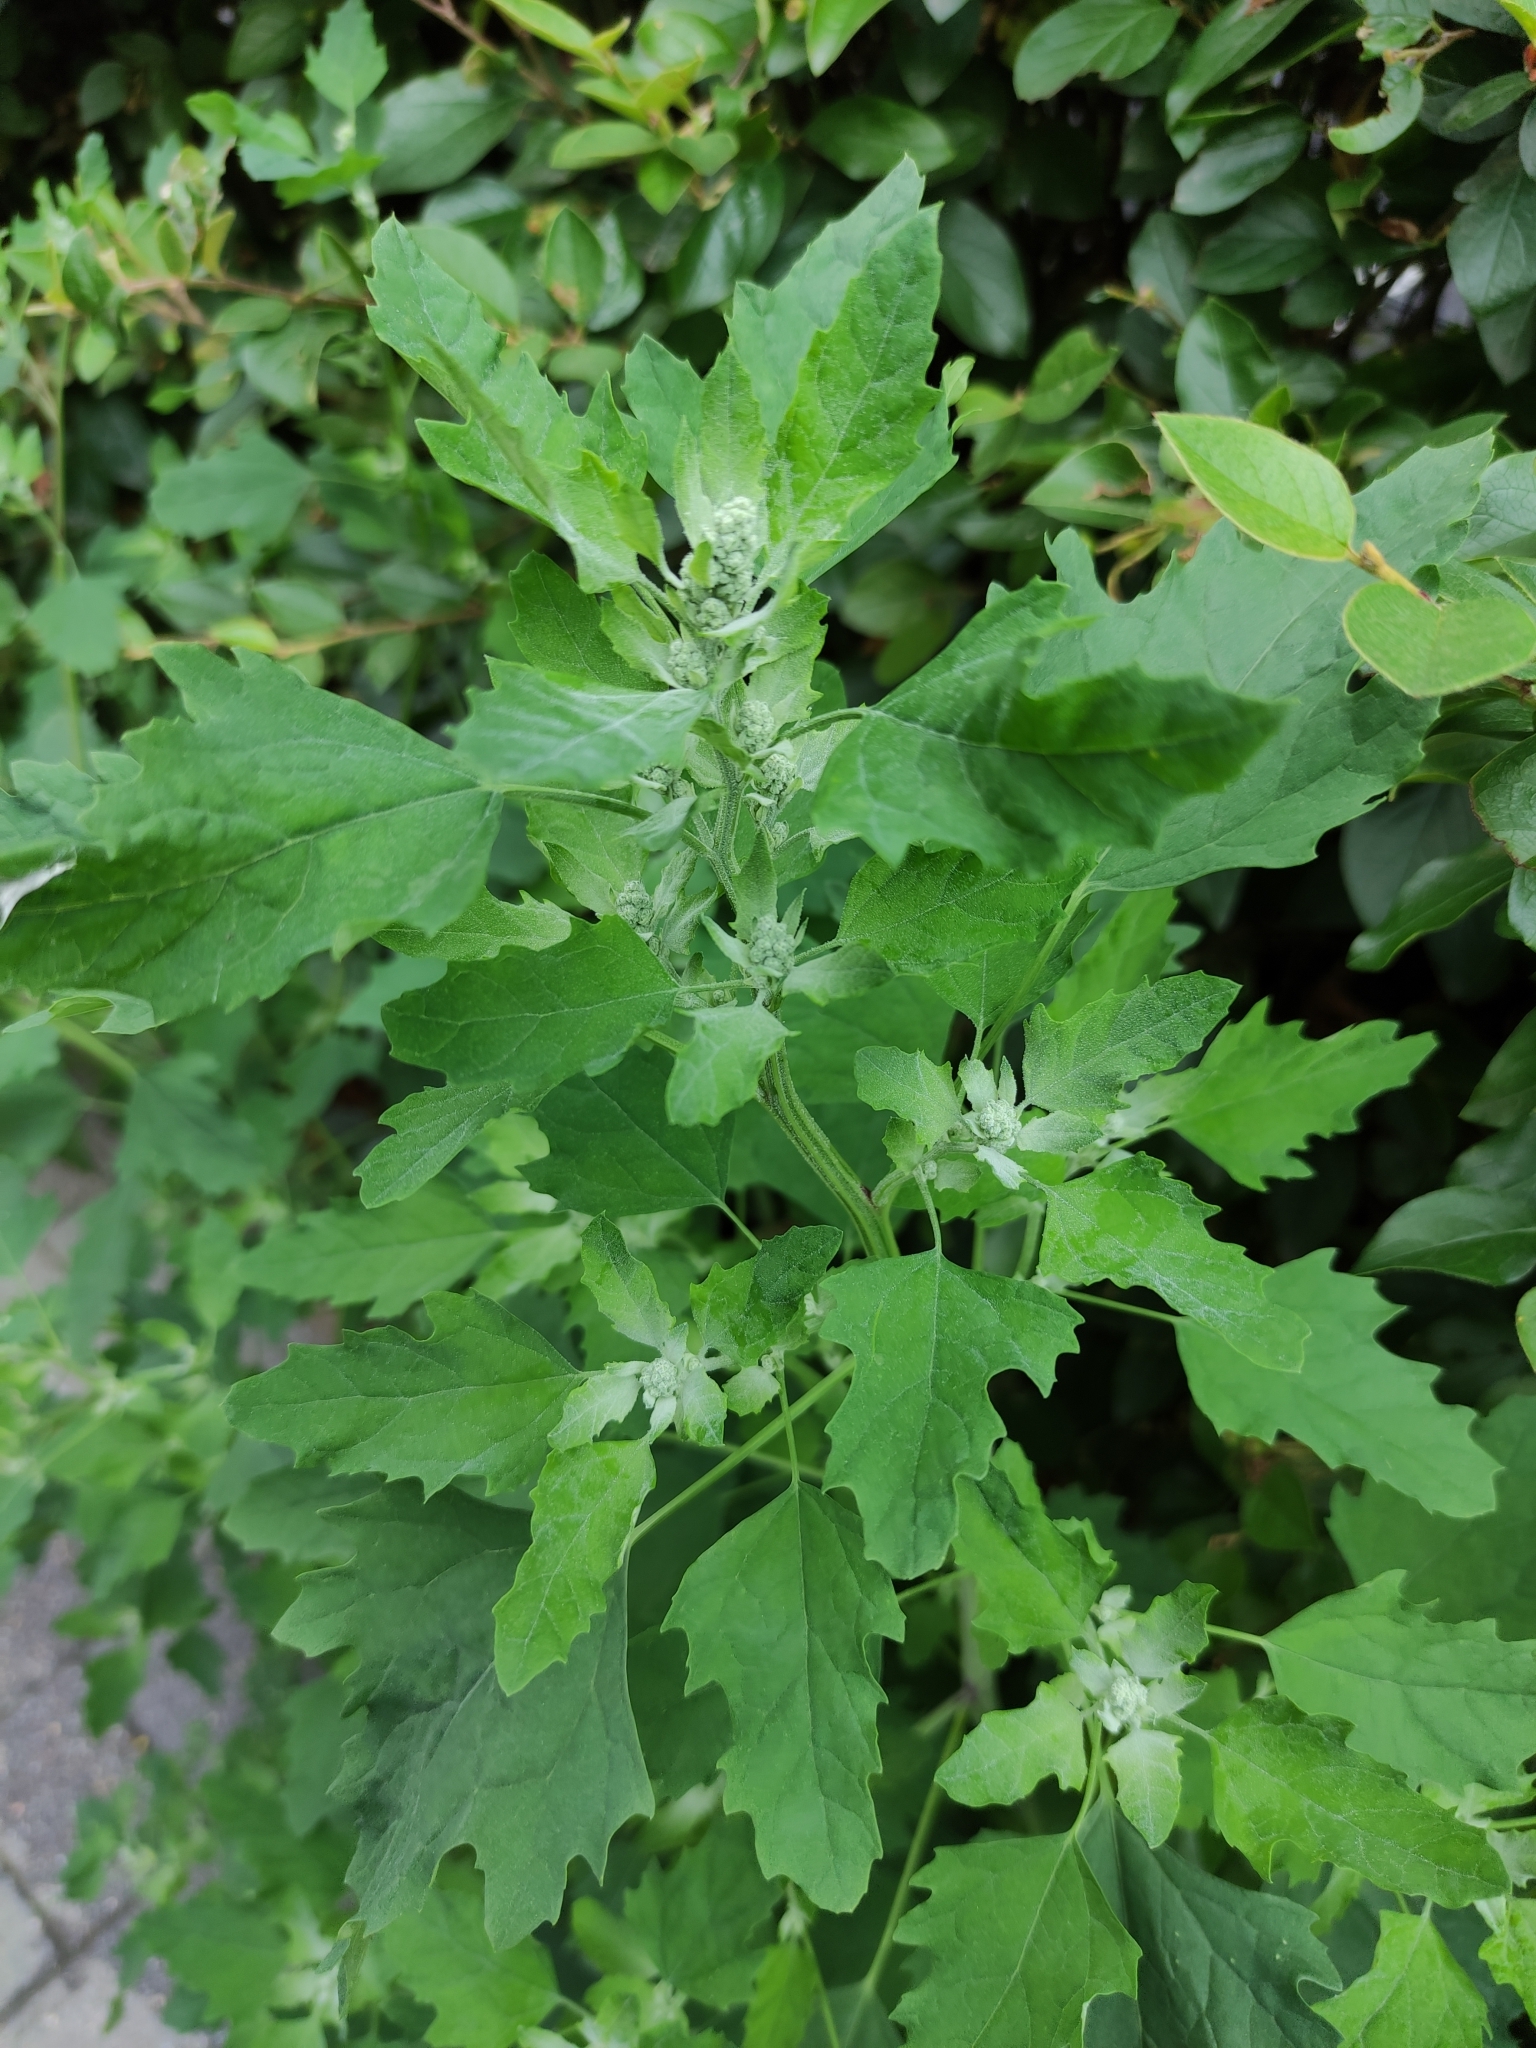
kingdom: Plantae
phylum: Tracheophyta
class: Magnoliopsida
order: Caryophyllales
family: Amaranthaceae
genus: Chenopodium
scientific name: Chenopodium album
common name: Fat-hen
